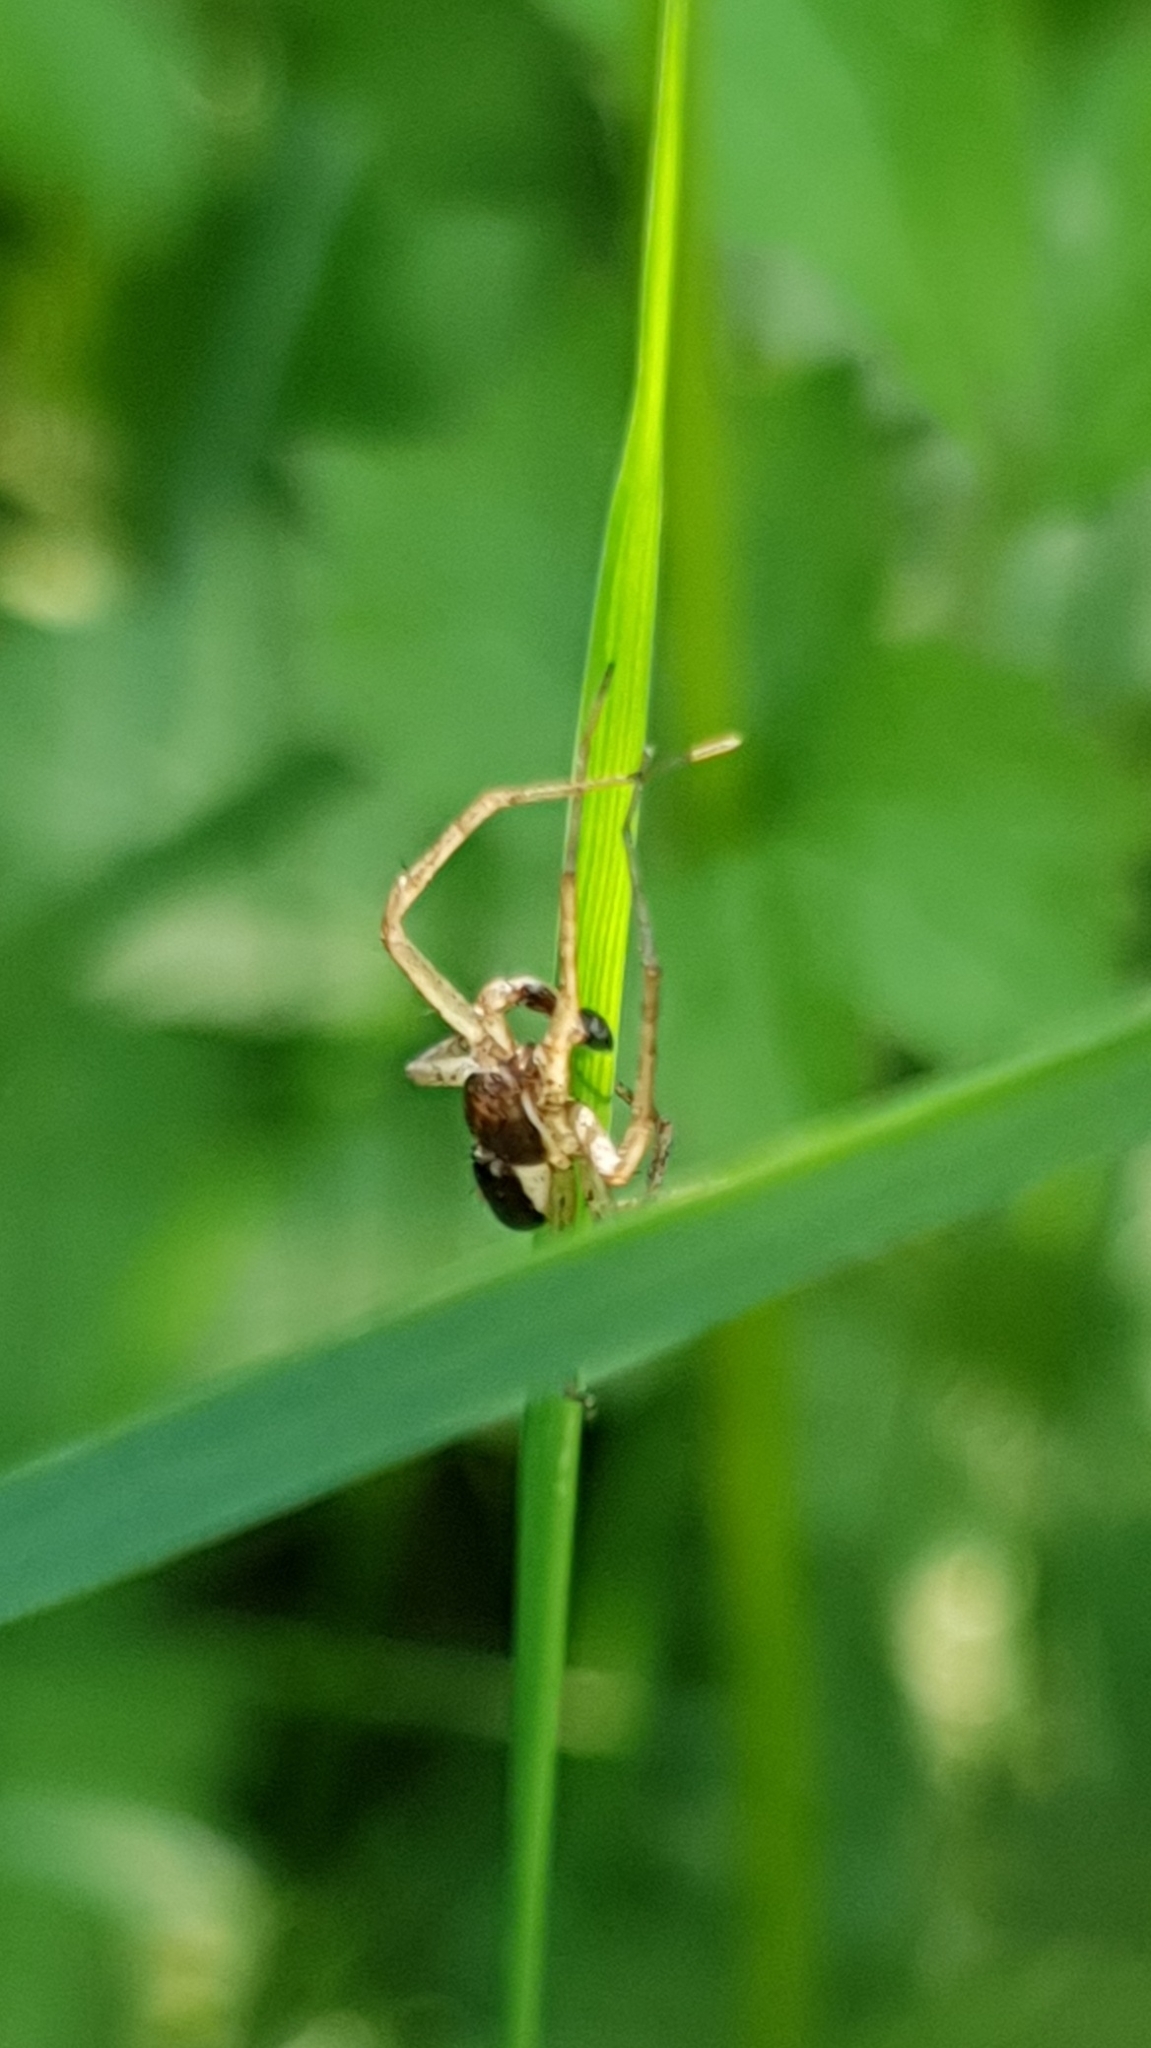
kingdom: Animalia
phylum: Arthropoda
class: Arachnida
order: Araneae
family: Philodromidae
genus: Philodromus
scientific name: Philodromus dispar
